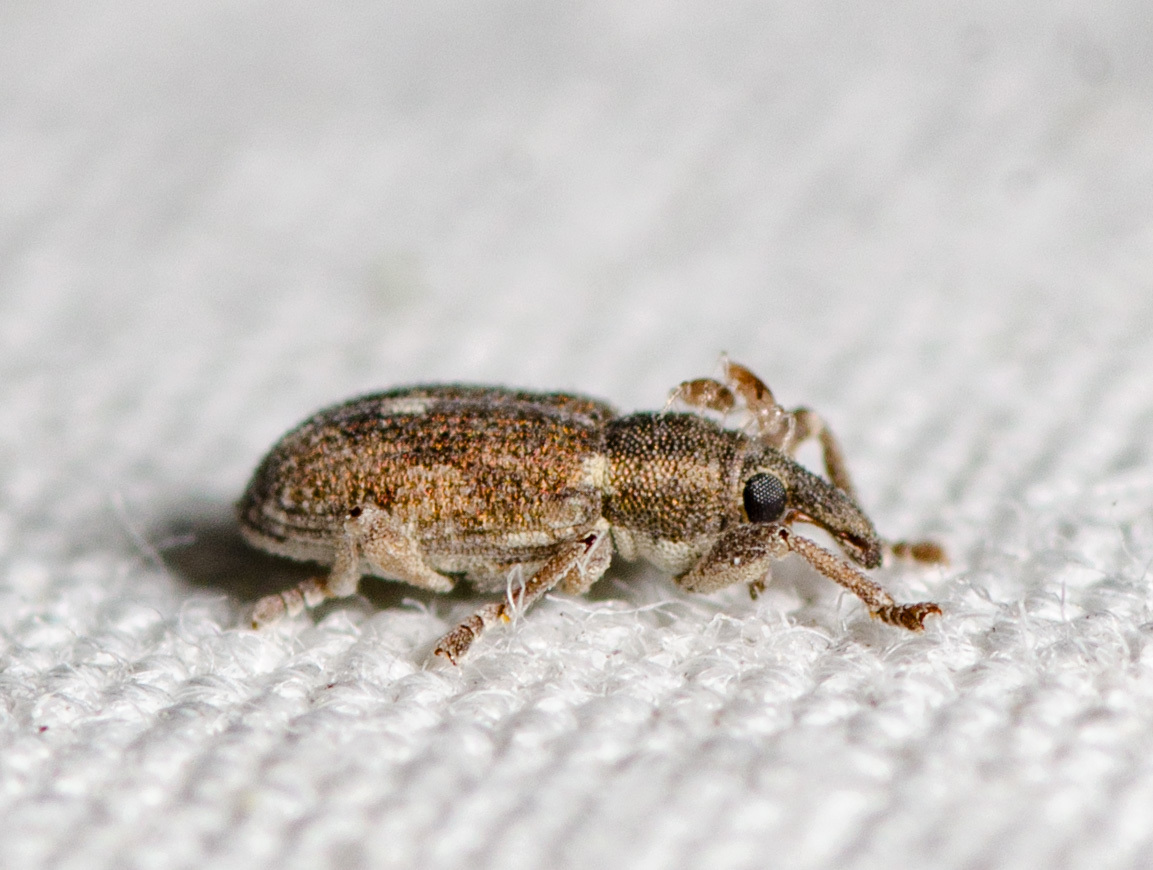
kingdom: Animalia
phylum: Arthropoda
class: Insecta
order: Coleoptera
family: Brachyceridae
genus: Endalus
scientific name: Endalus aeratus
